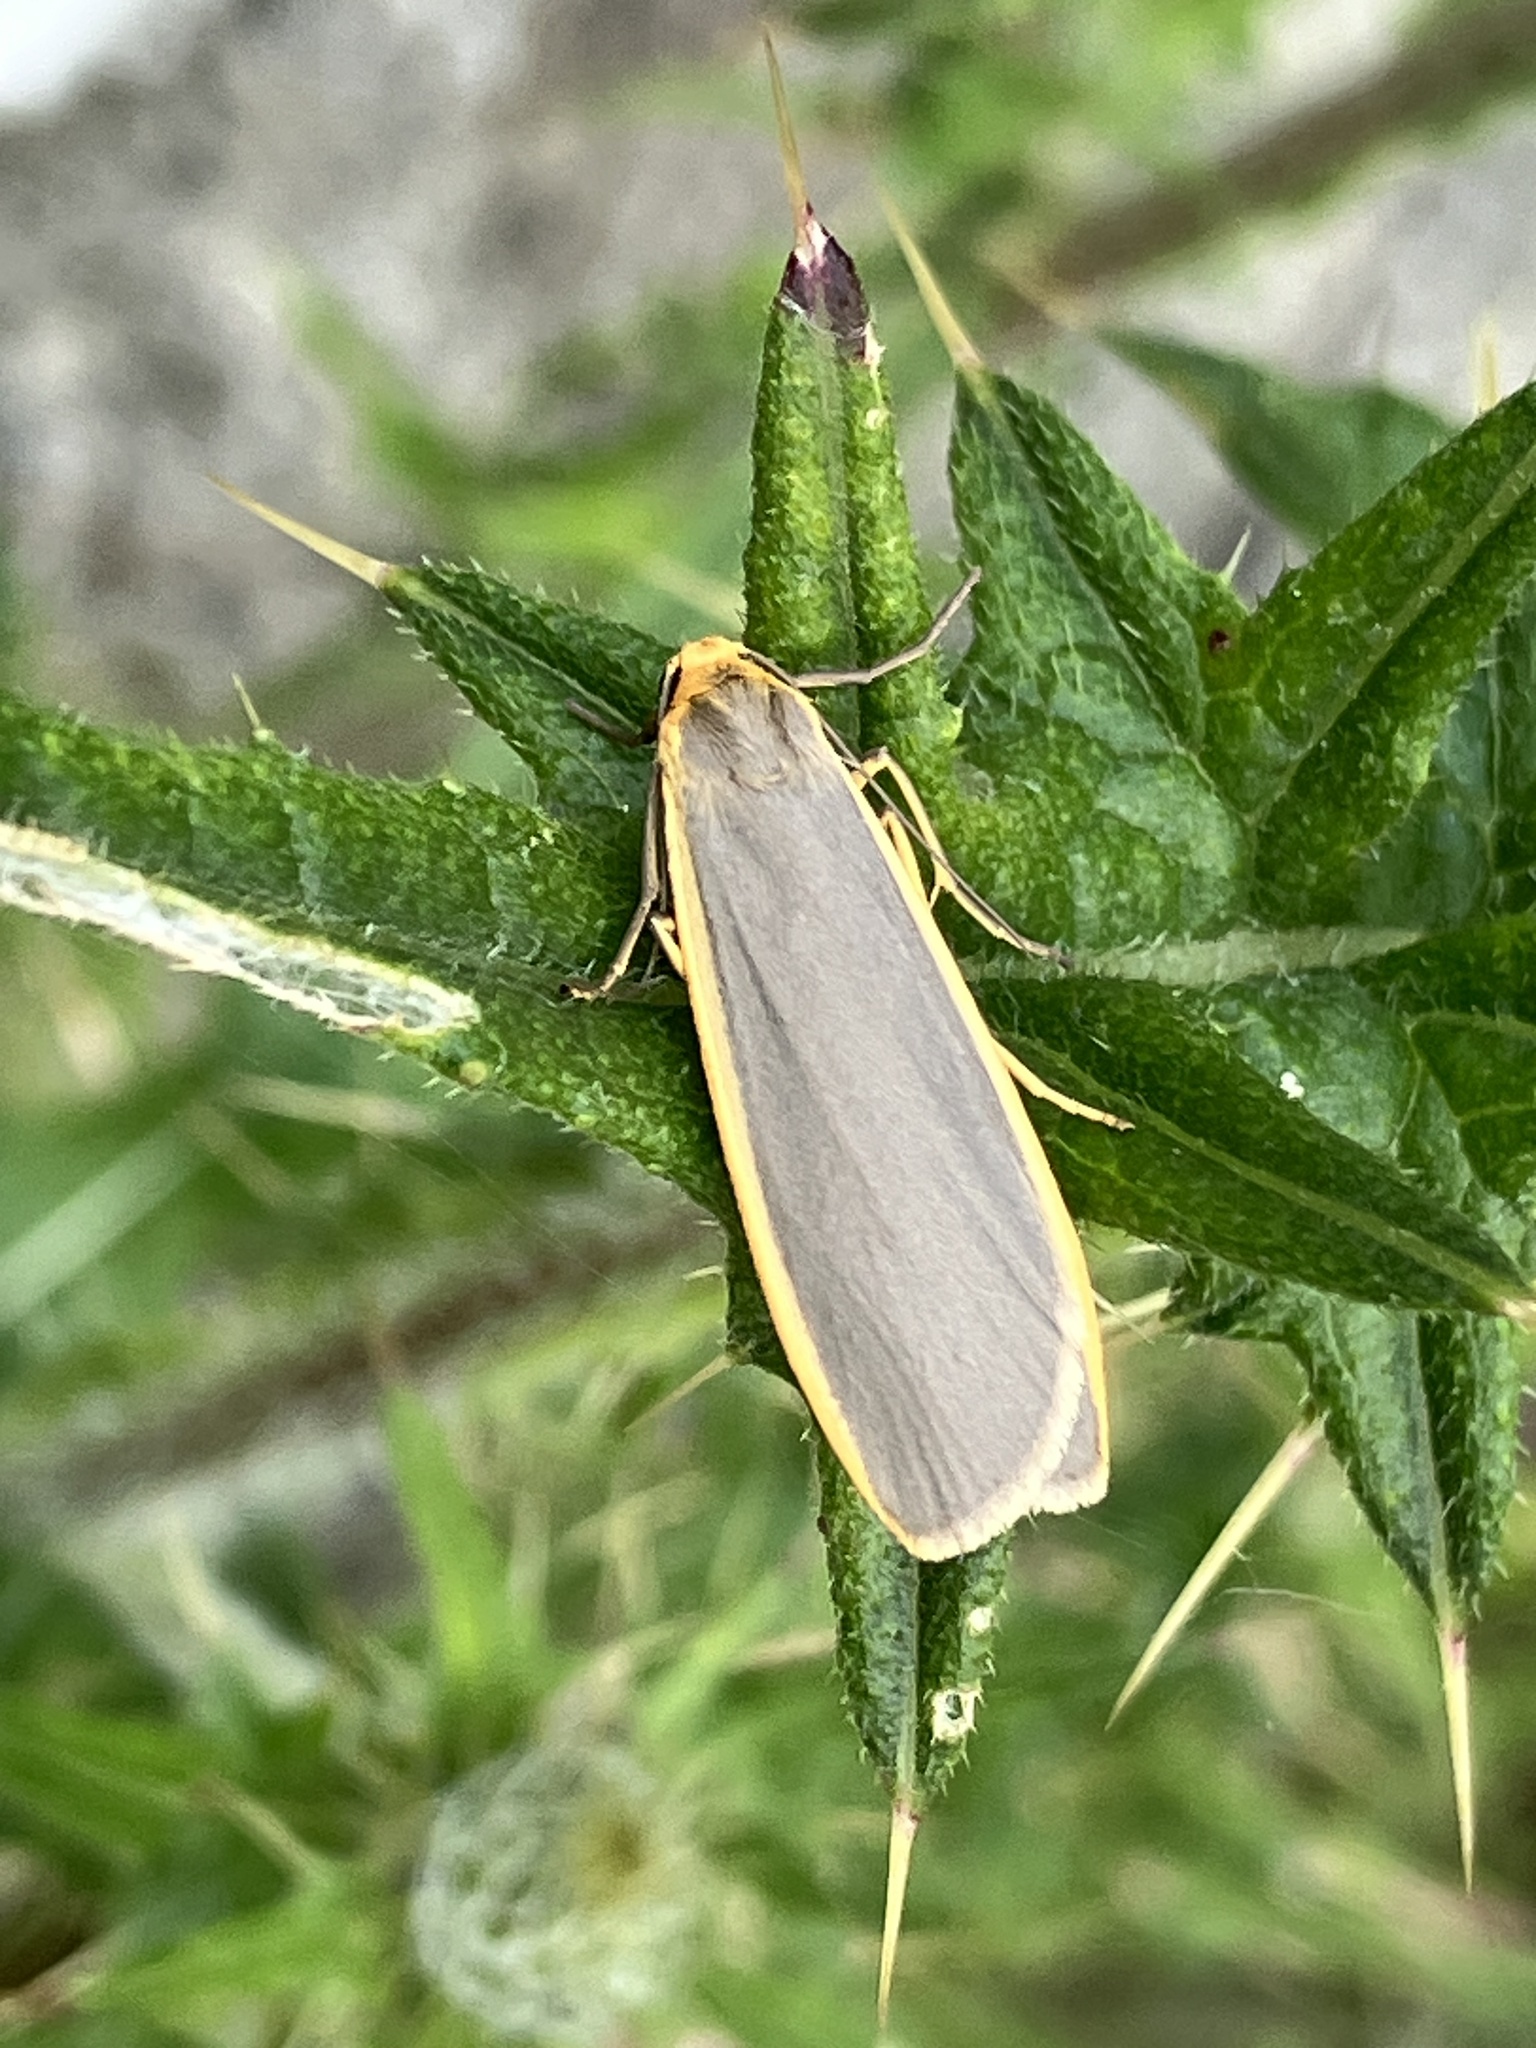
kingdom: Animalia
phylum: Arthropoda
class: Insecta
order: Lepidoptera
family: Erebidae
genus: Nyea
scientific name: Nyea lurideola
